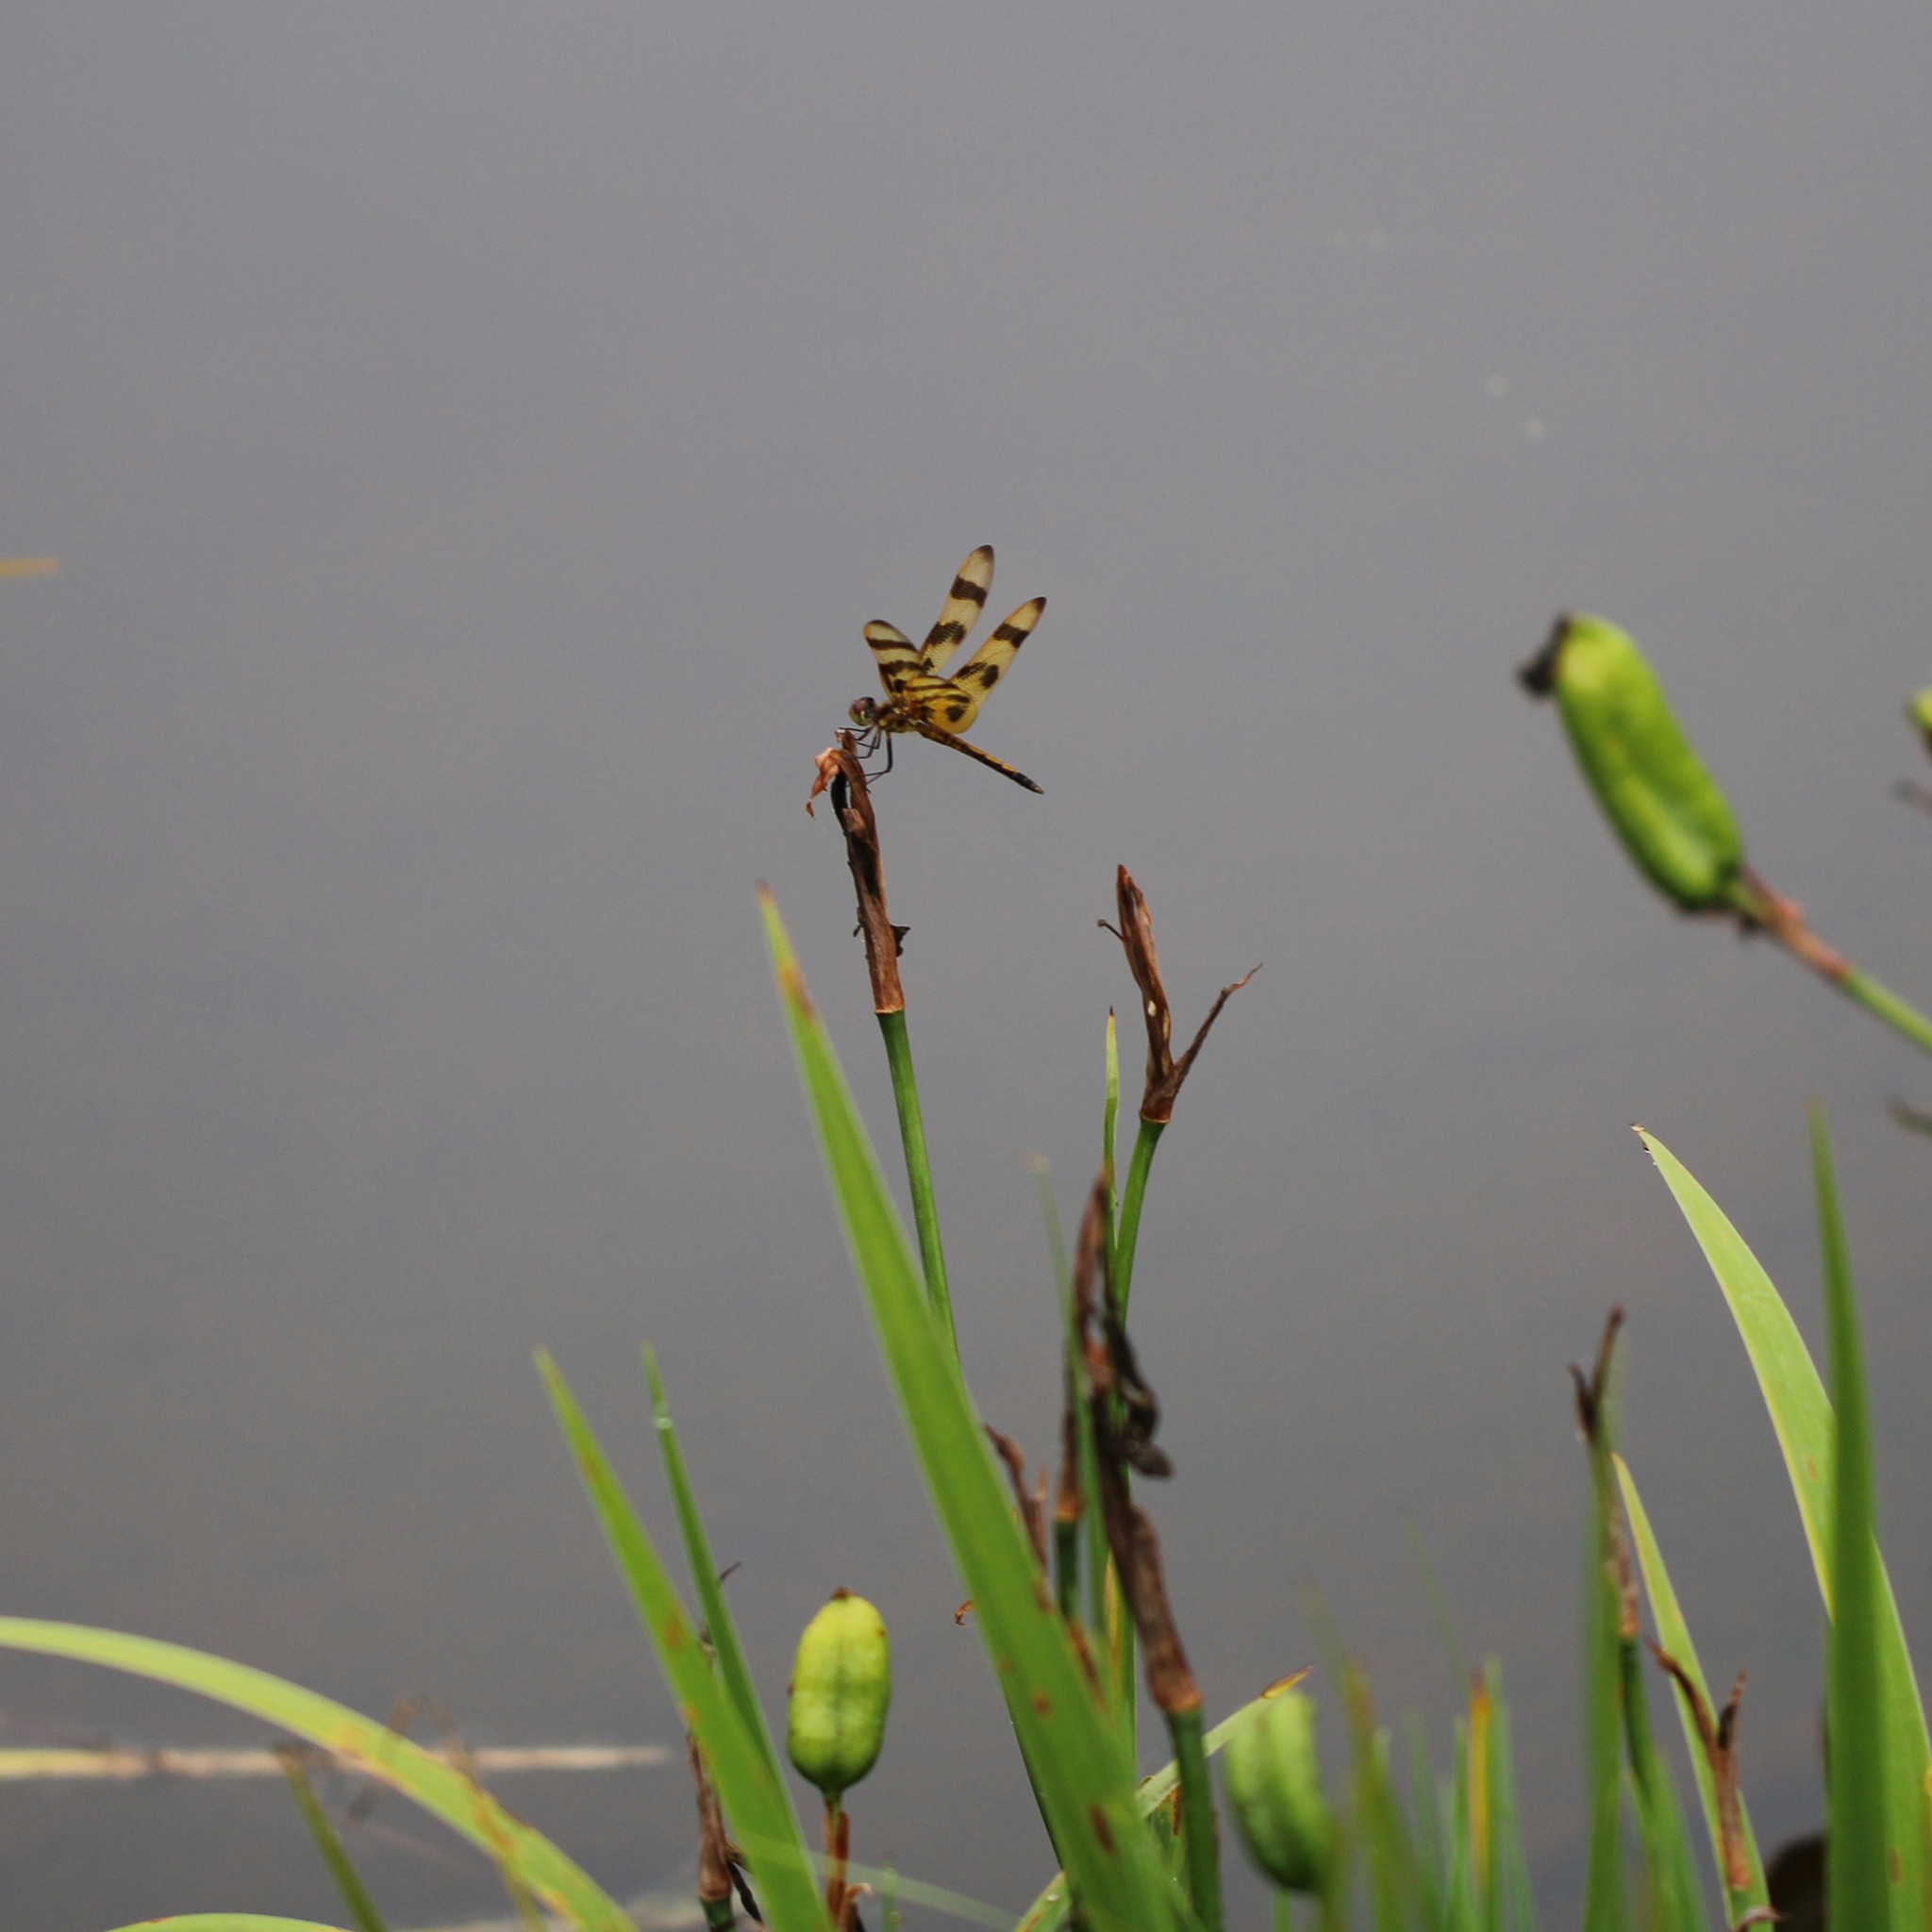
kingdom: Animalia
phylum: Arthropoda
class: Insecta
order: Odonata
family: Libellulidae
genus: Celithemis
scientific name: Celithemis eponina
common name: Halloween pennant
